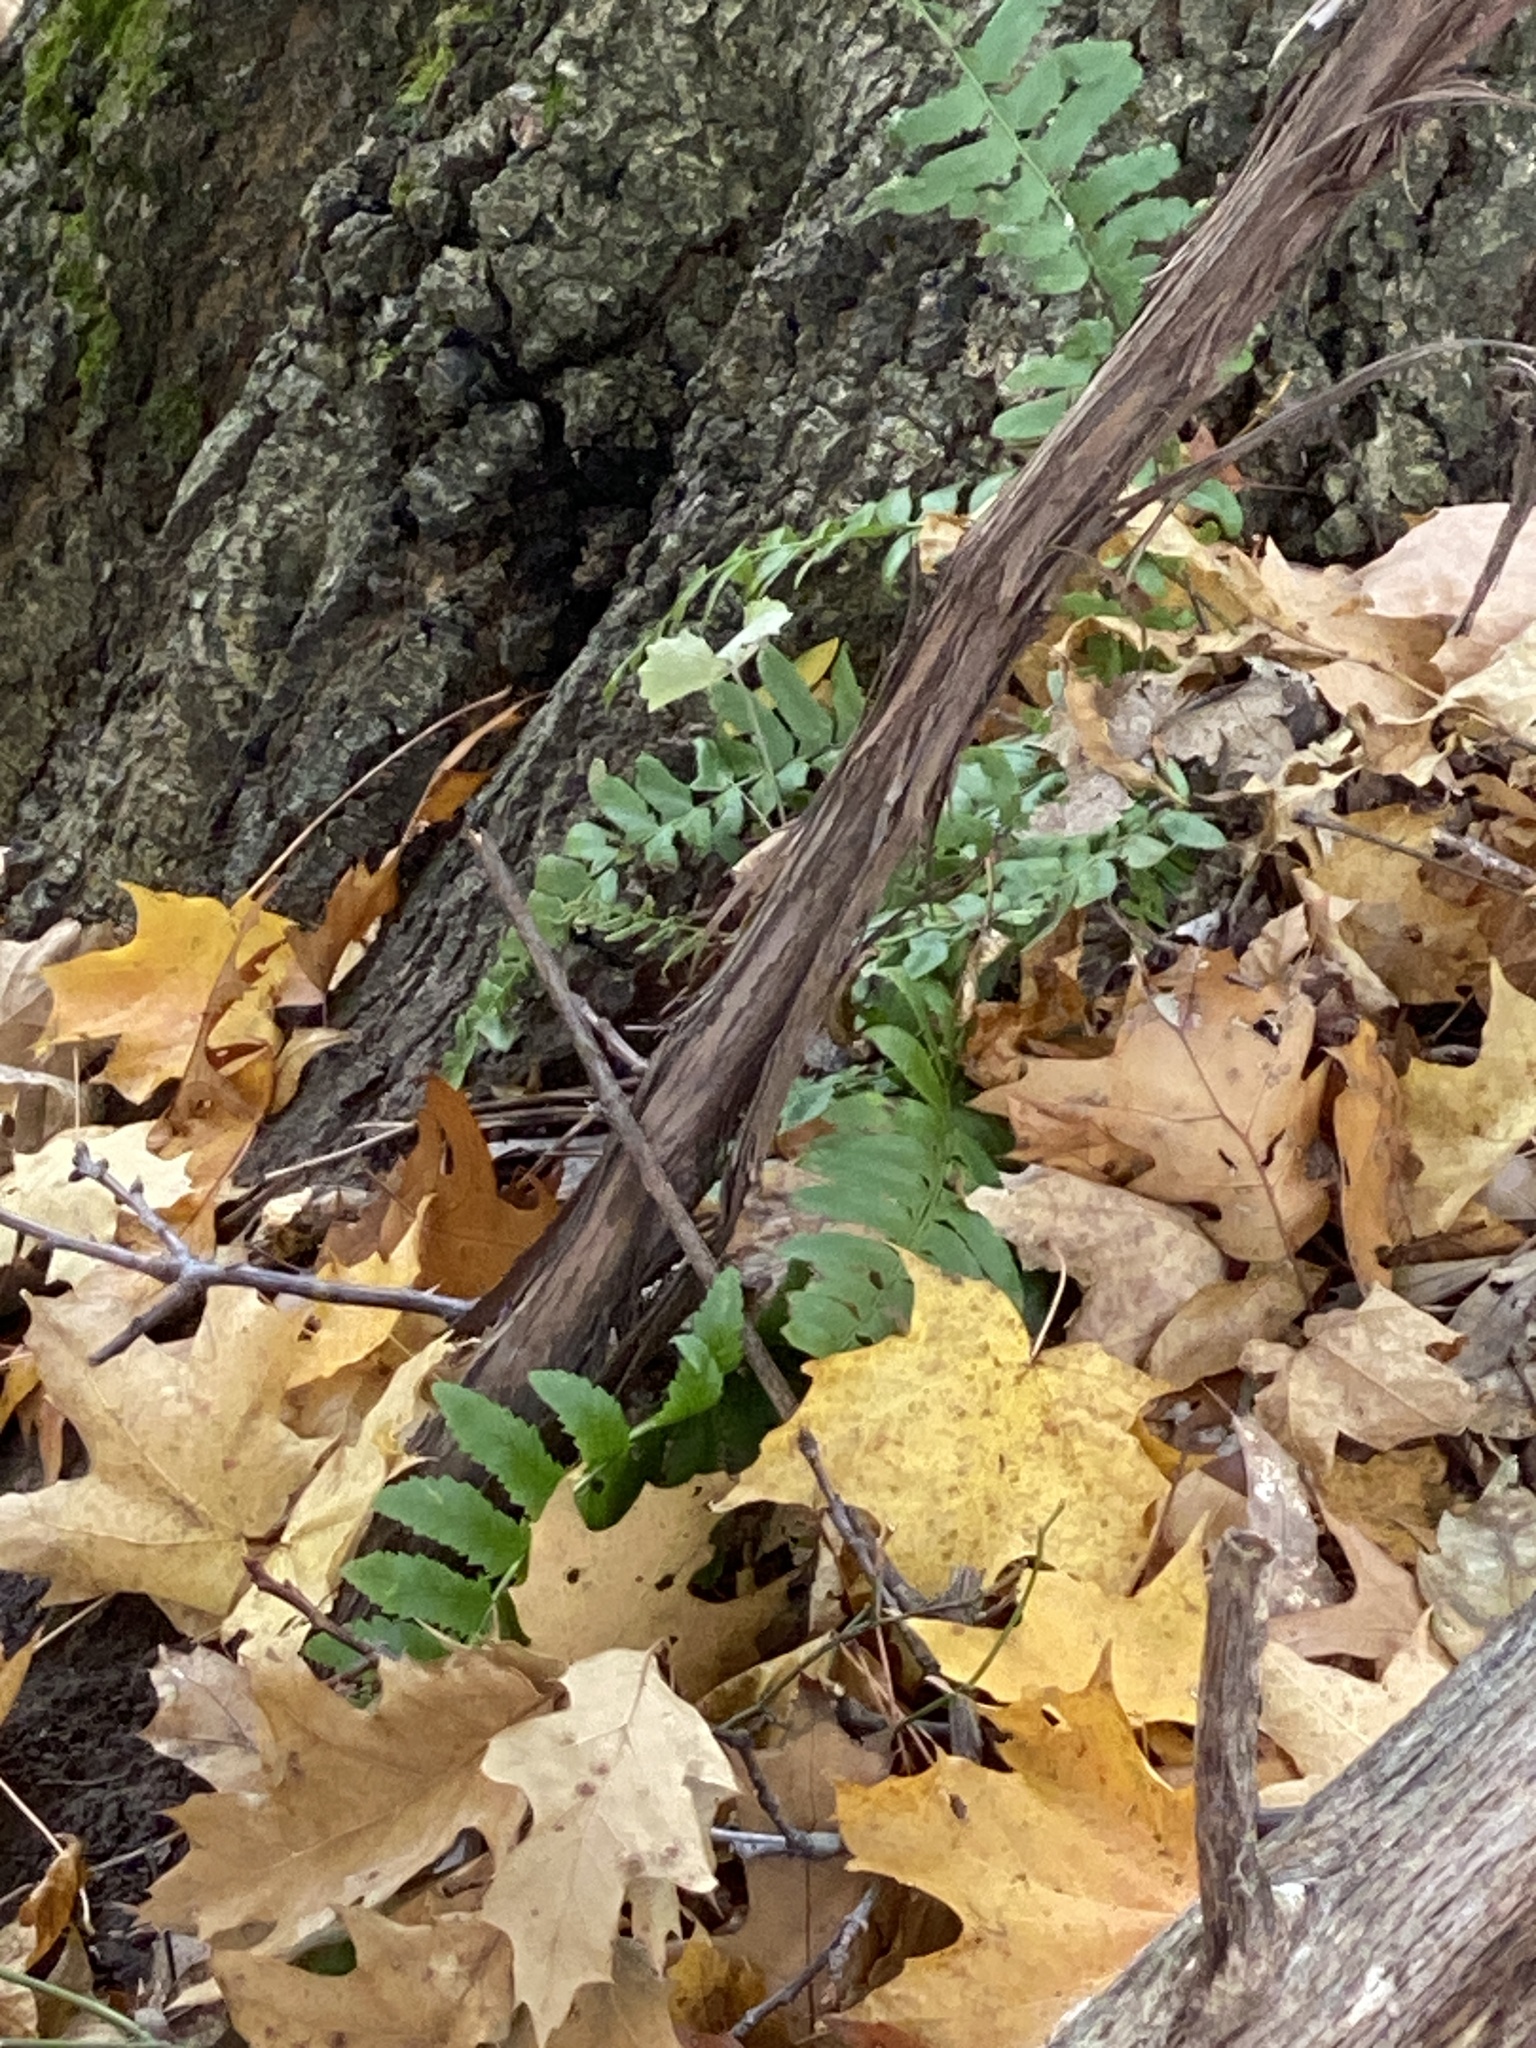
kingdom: Plantae
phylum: Tracheophyta
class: Polypodiopsida
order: Polypodiales
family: Dryopteridaceae
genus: Polystichum
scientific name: Polystichum acrostichoides
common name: Christmas fern
